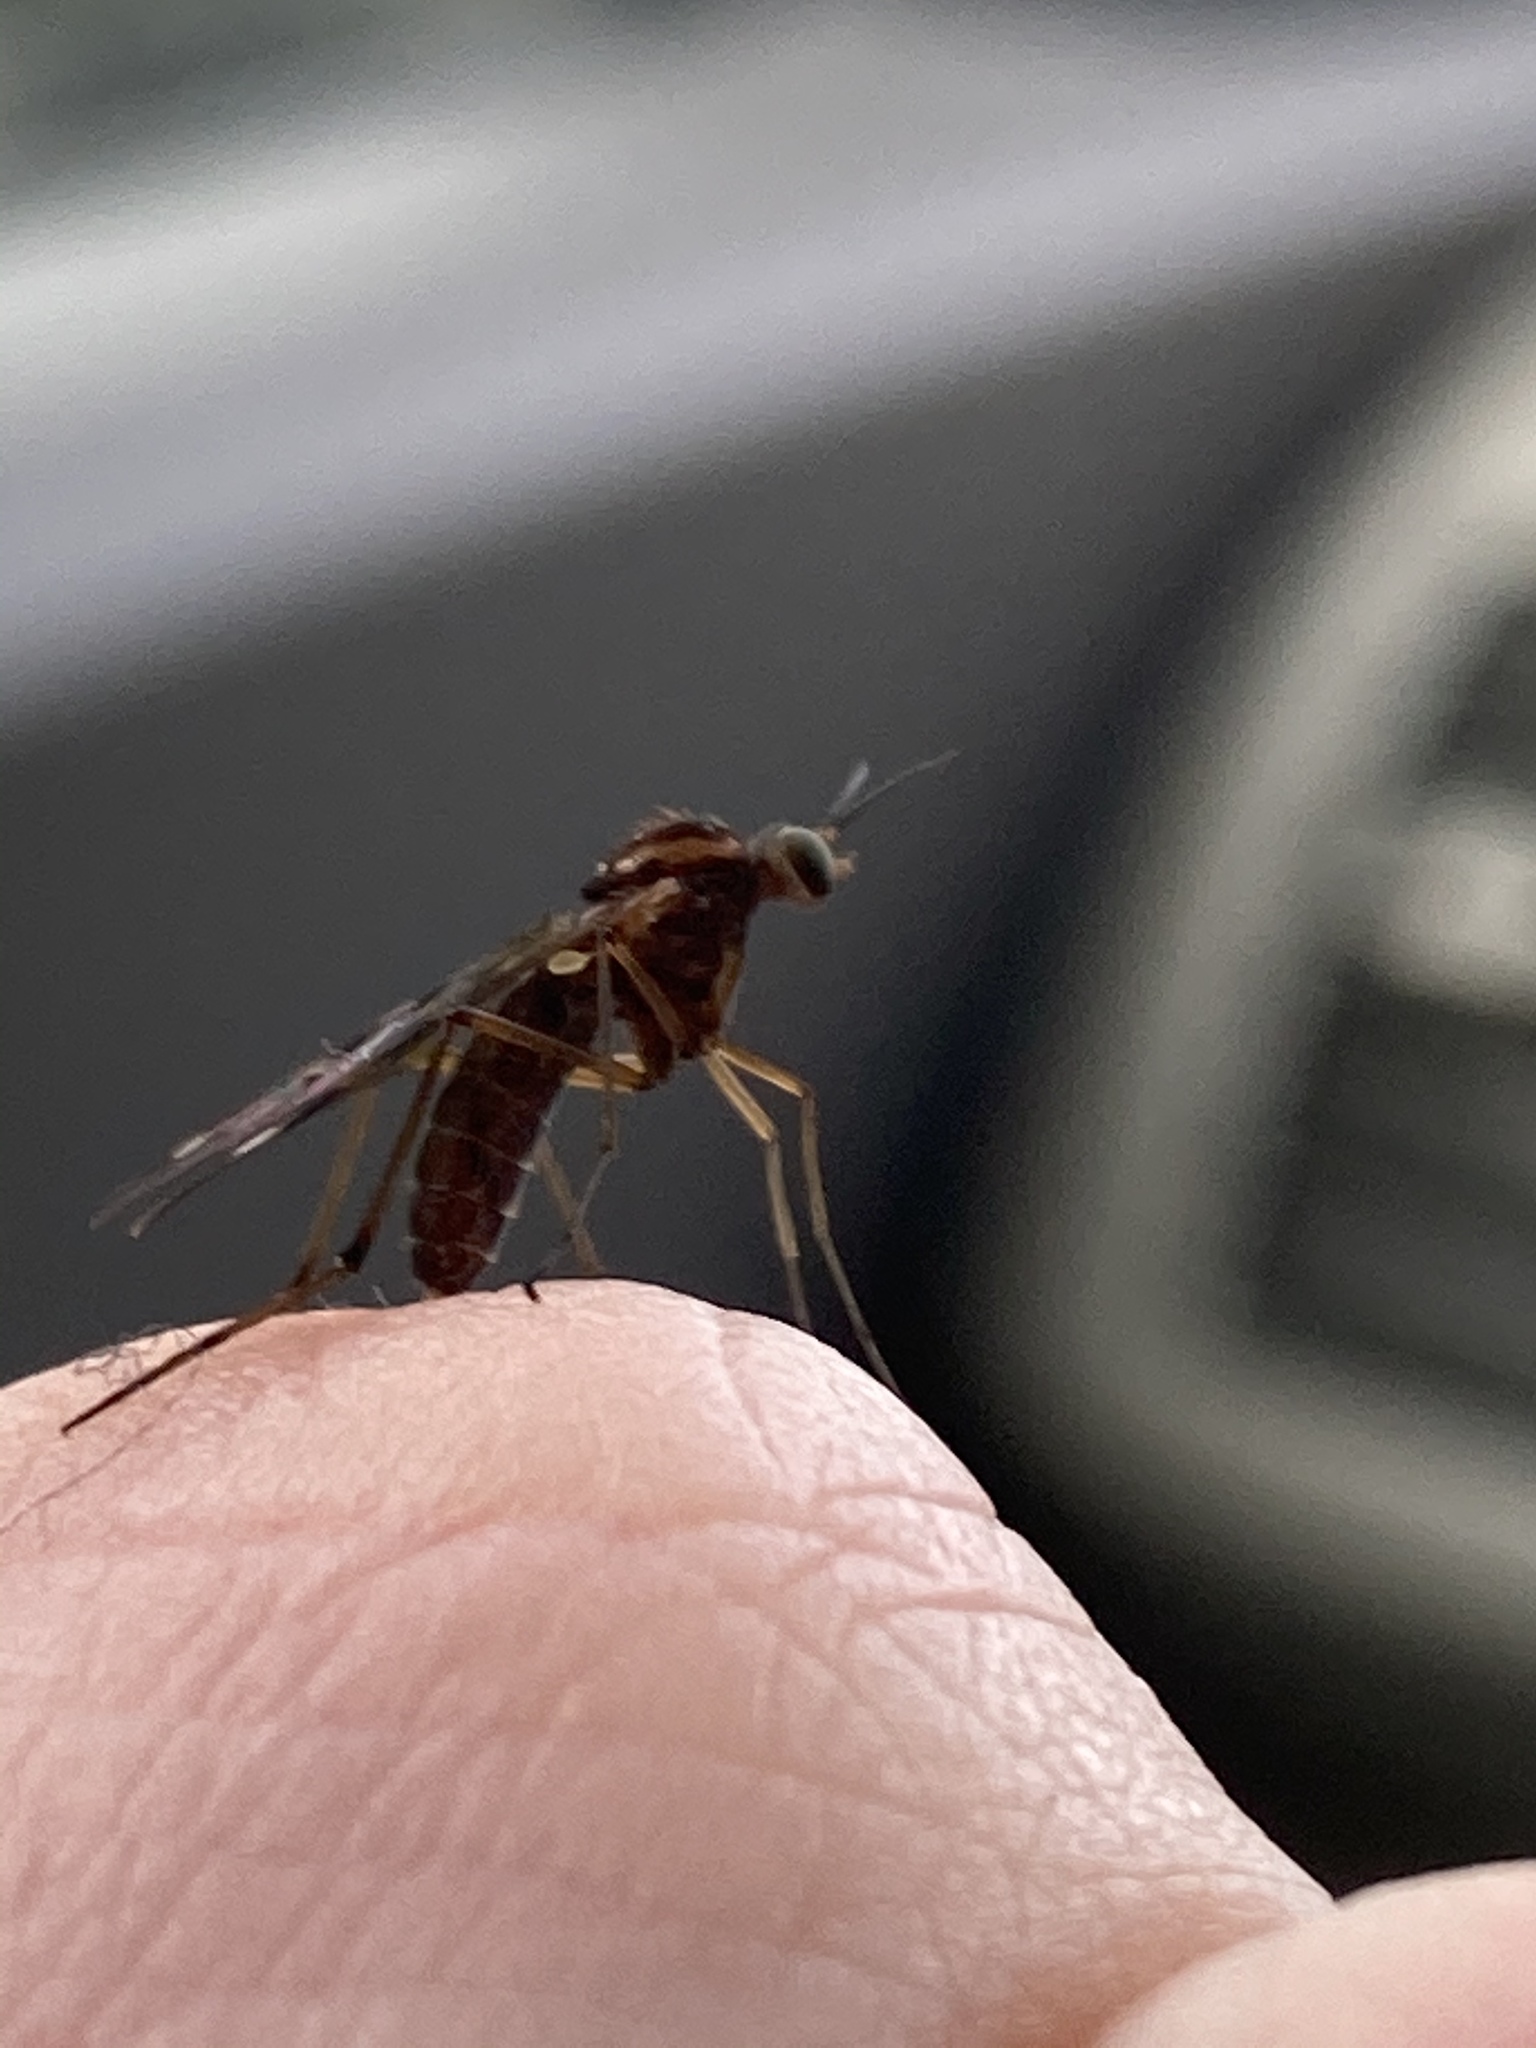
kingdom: Animalia
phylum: Arthropoda
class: Insecta
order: Diptera
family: Anisopodidae
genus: Sylvicola
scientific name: Sylvicola notatus
